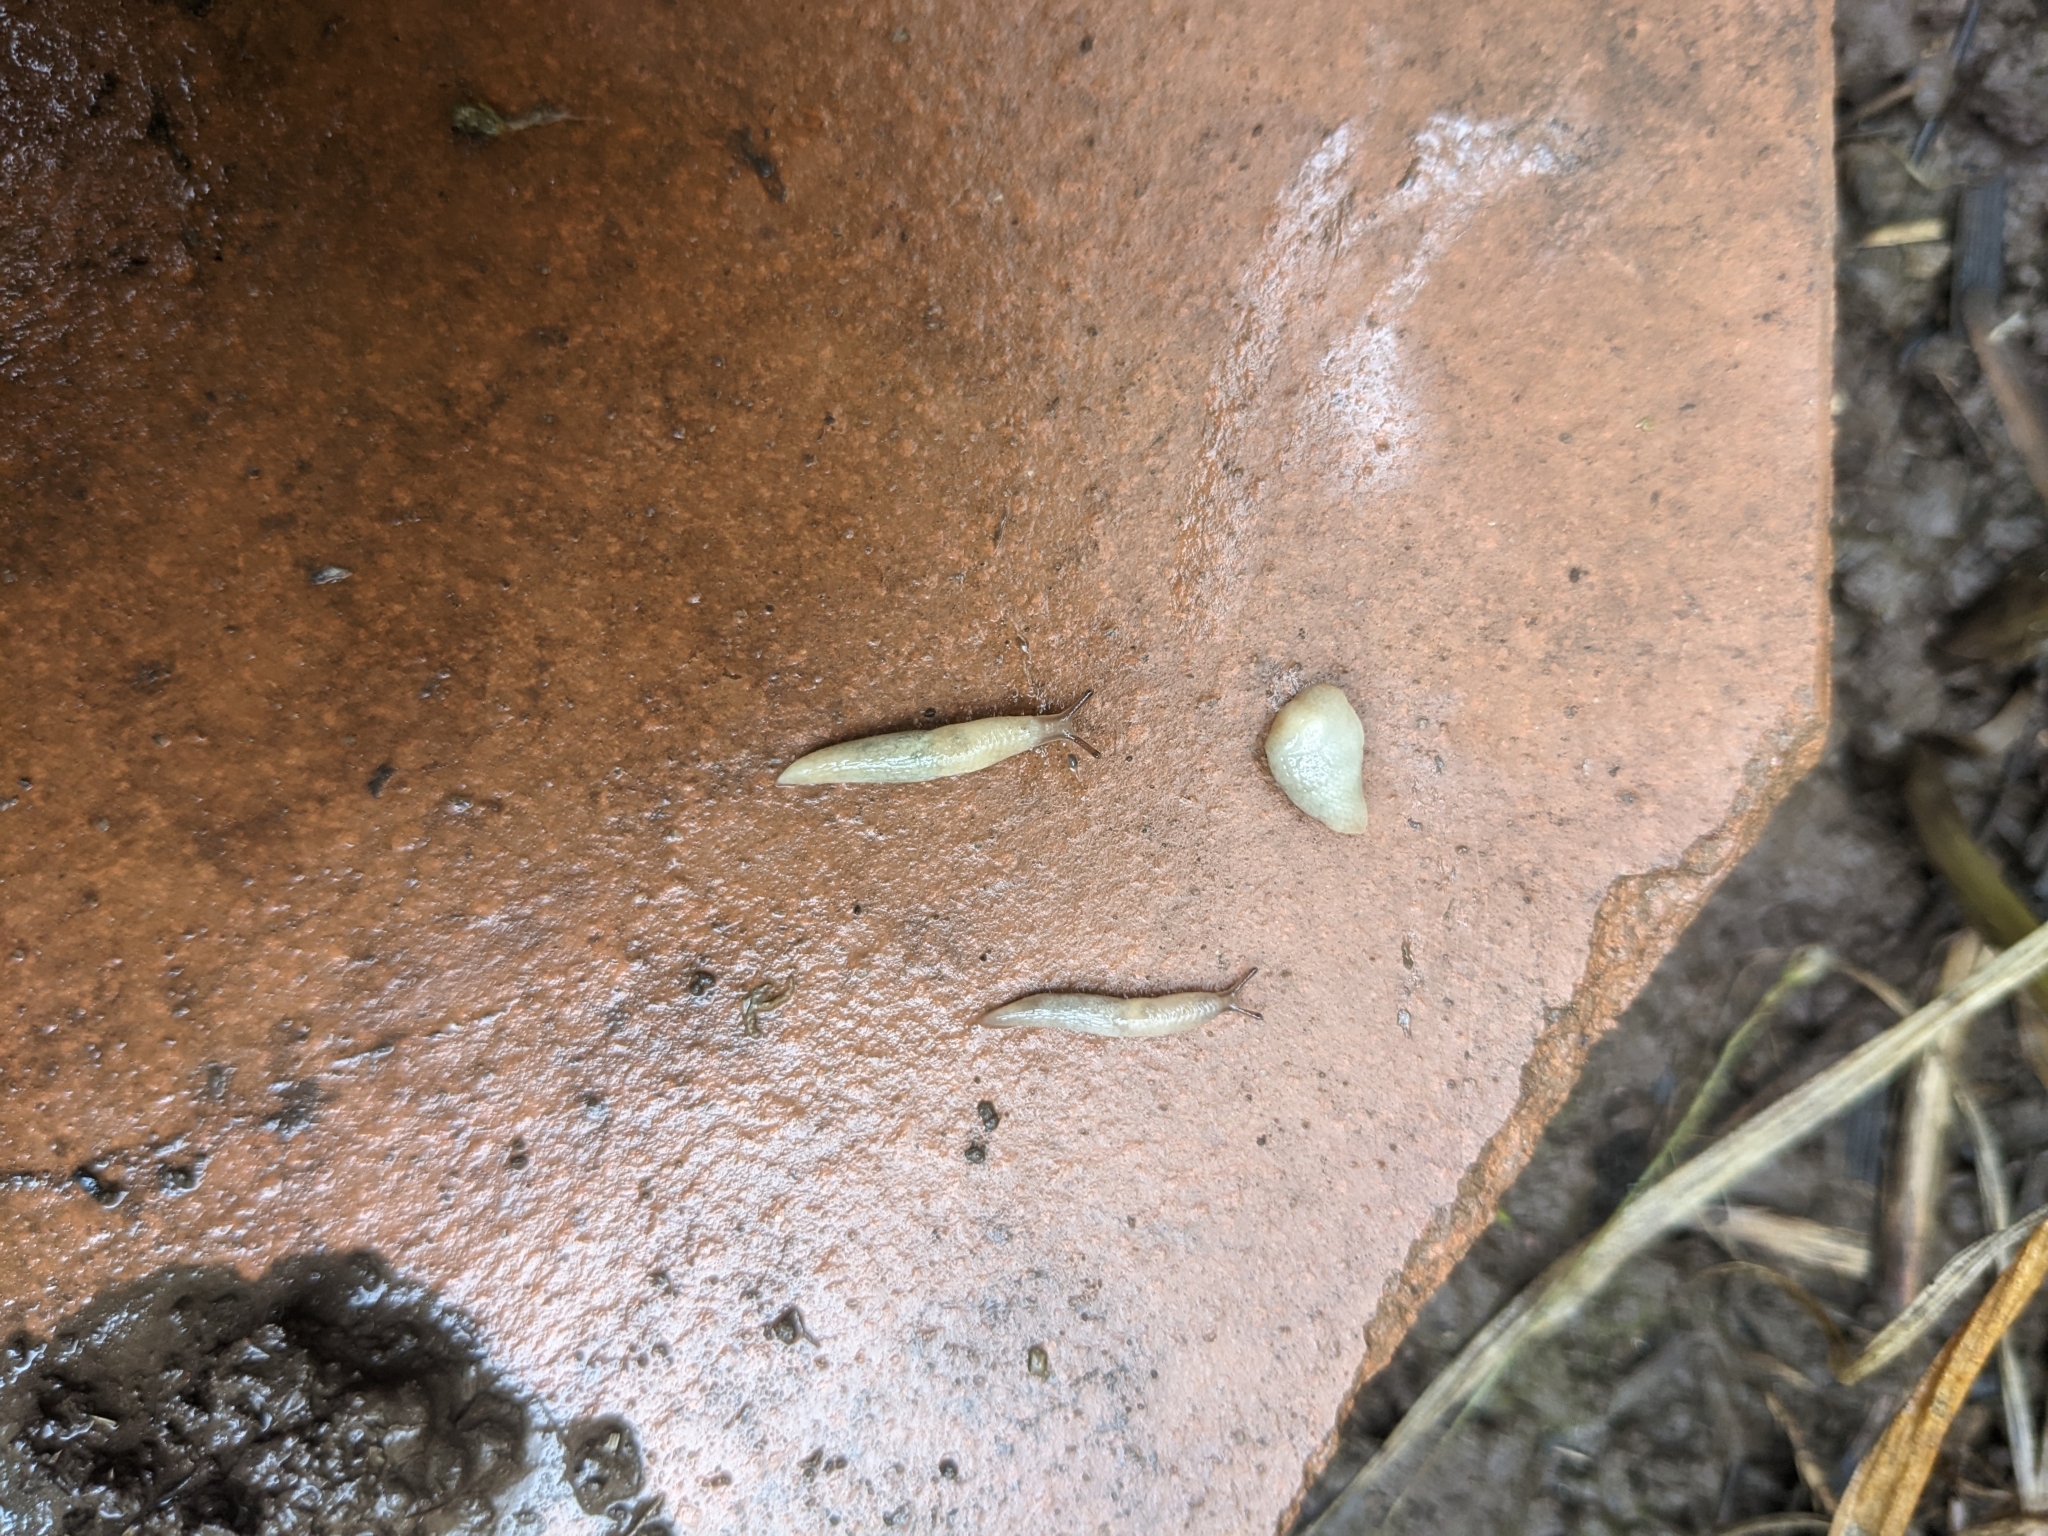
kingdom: Animalia
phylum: Mollusca
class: Gastropoda
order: Stylommatophora
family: Agriolimacidae
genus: Deroceras
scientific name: Deroceras reticulatum
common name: Gray field slug
